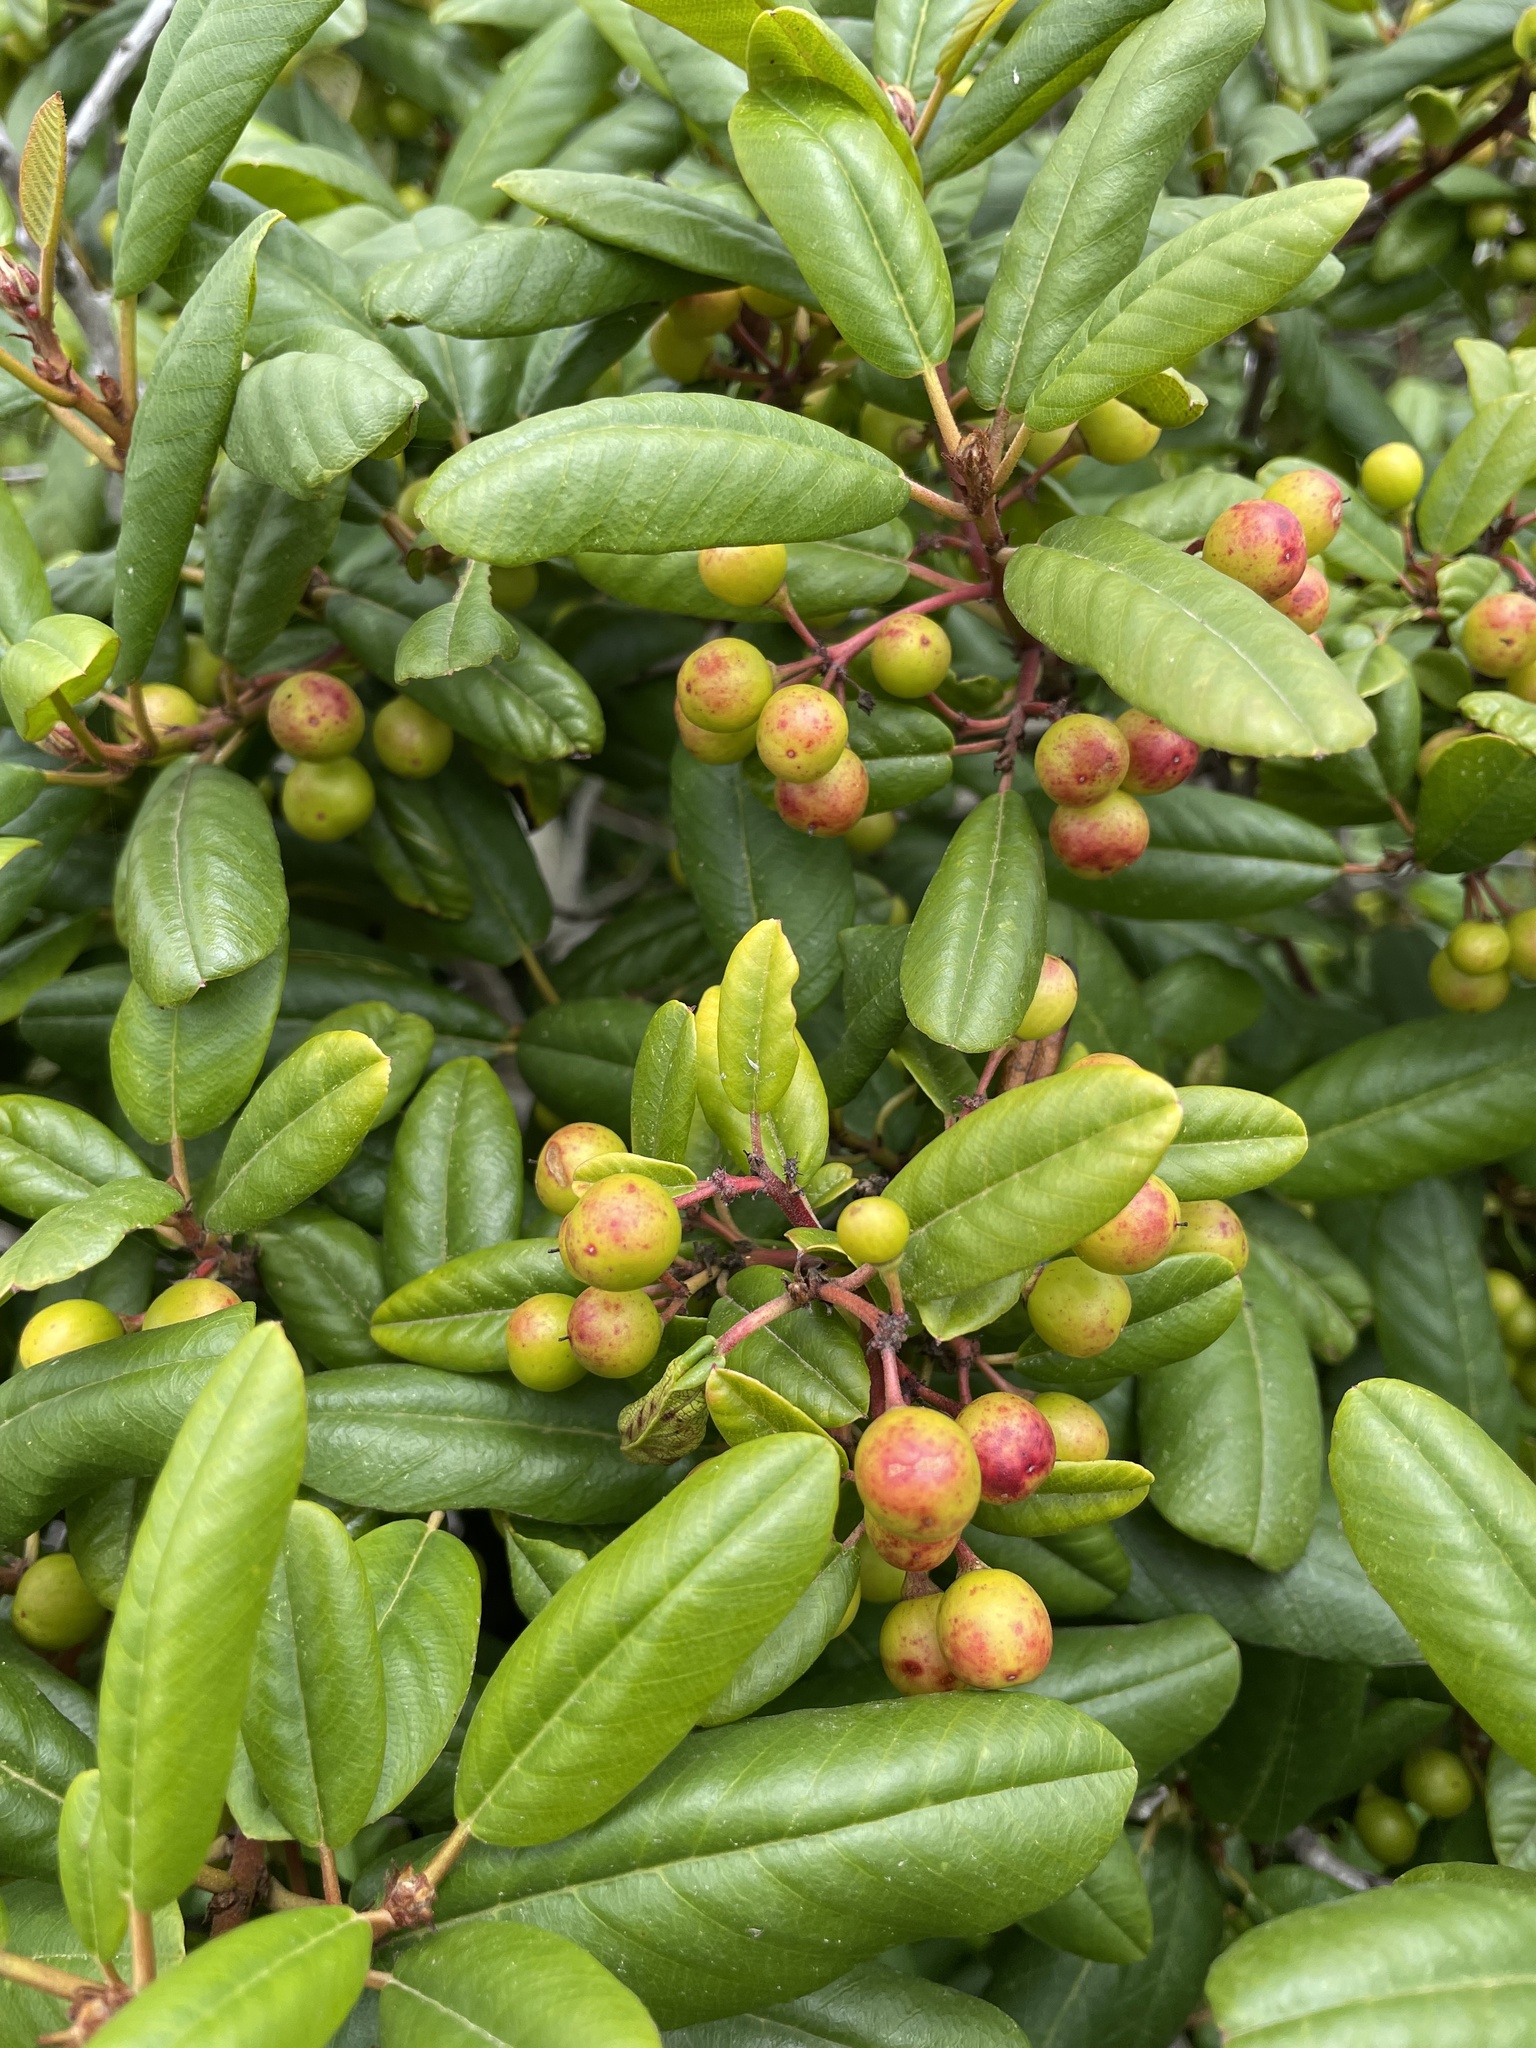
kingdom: Plantae
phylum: Tracheophyta
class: Magnoliopsida
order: Rosales
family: Rhamnaceae
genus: Frangula
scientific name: Frangula californica
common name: California buckthorn
